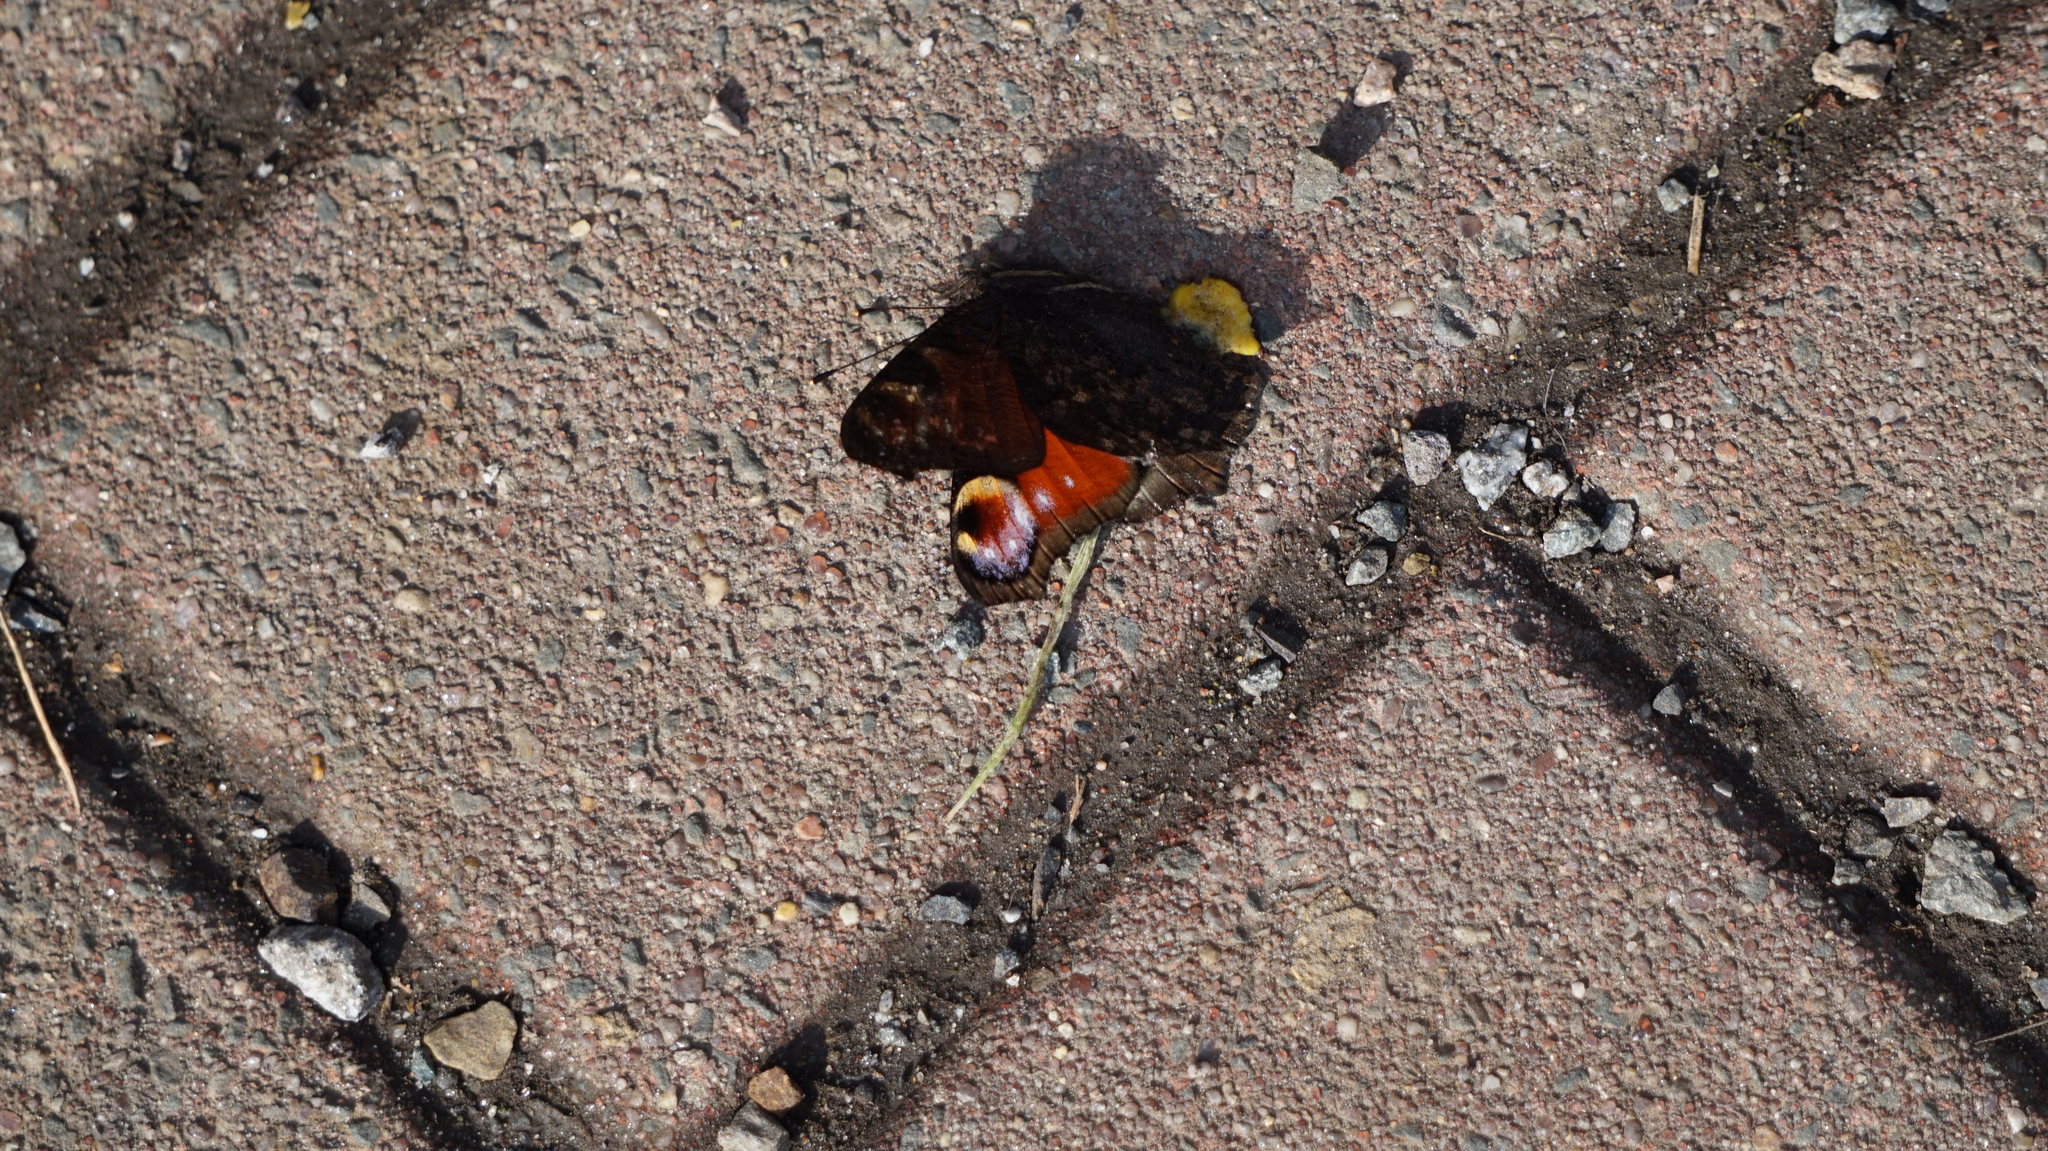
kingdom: Animalia
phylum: Arthropoda
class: Insecta
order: Lepidoptera
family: Nymphalidae
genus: Aglais
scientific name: Aglais io
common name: Peacock
